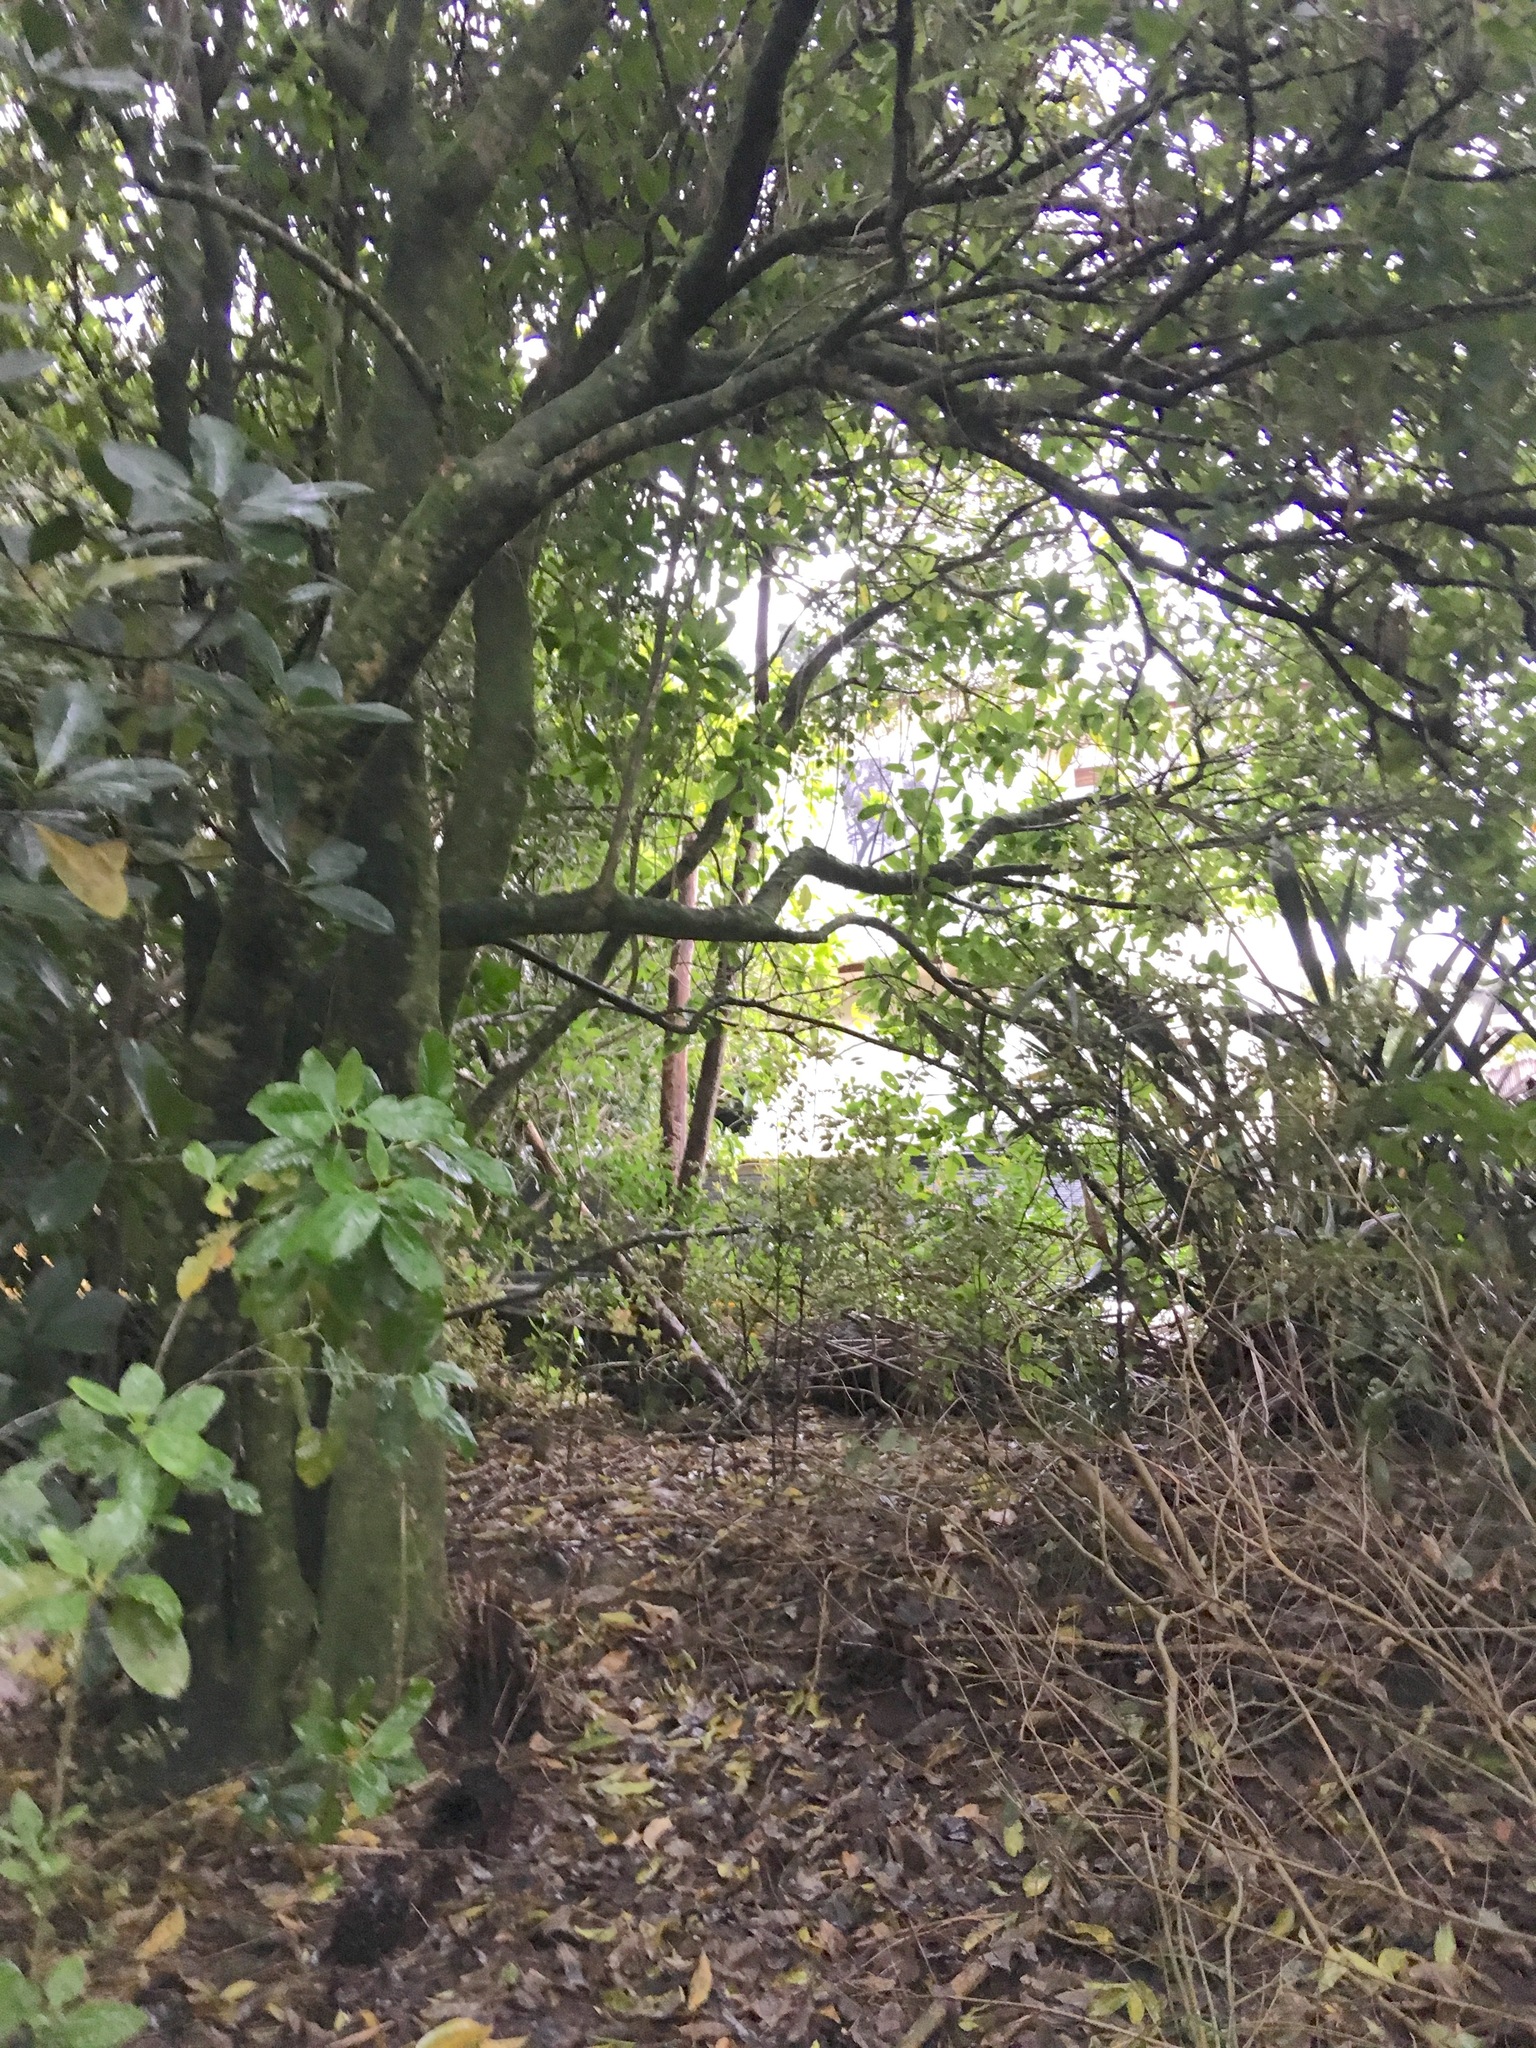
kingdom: Plantae
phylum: Tracheophyta
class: Magnoliopsida
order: Lamiales
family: Oleaceae
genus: Ligustrum
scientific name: Ligustrum lucidum
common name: Glossy privet
